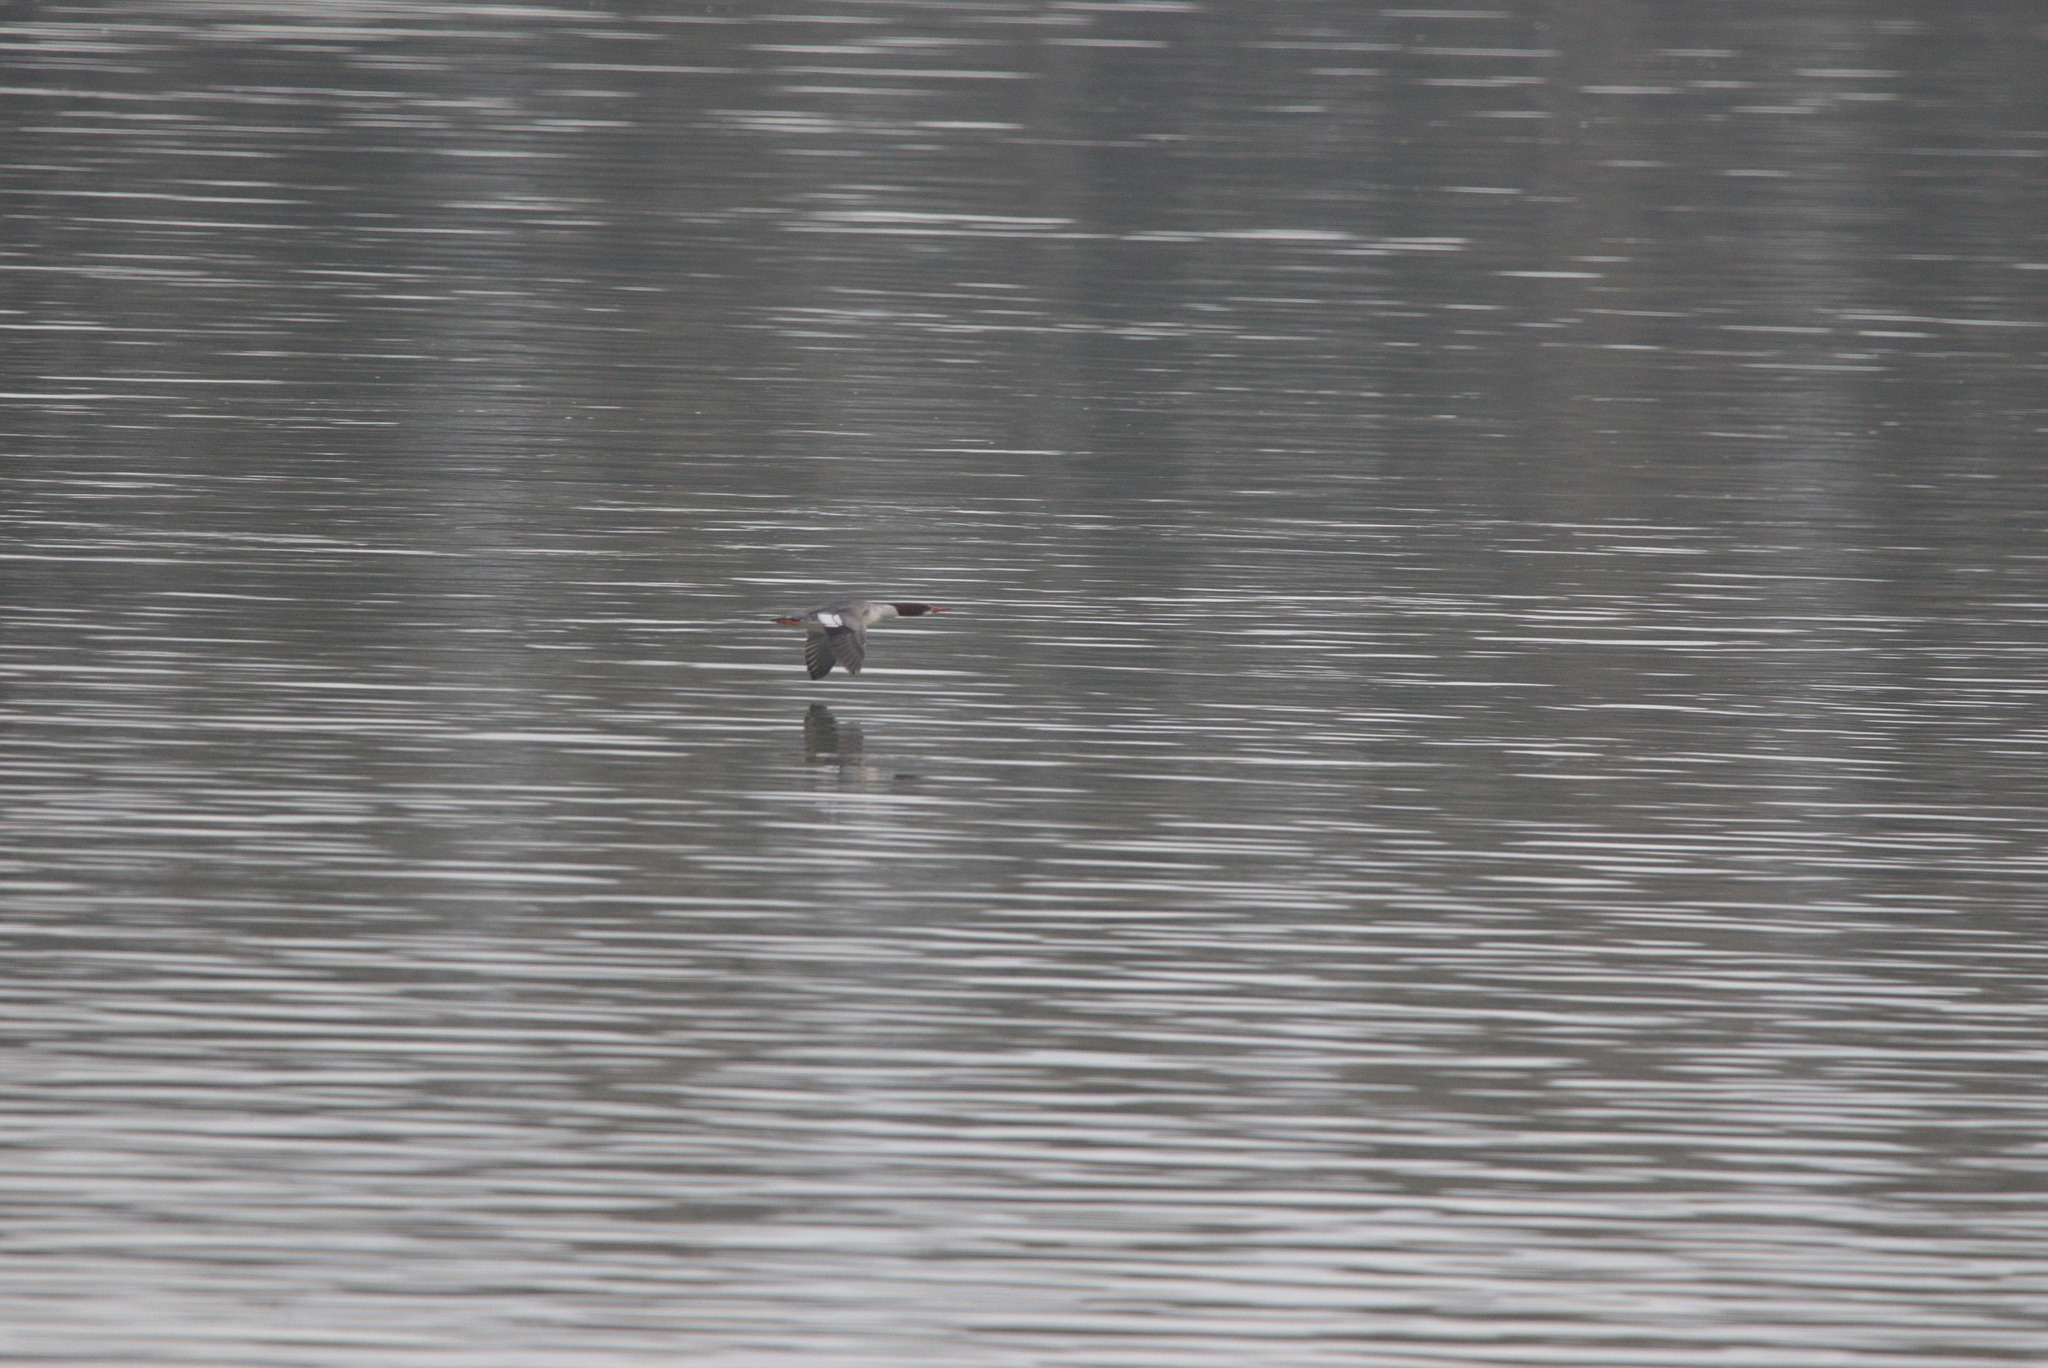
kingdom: Animalia
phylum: Chordata
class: Aves
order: Anseriformes
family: Anatidae
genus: Mergus
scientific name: Mergus merganser
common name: Common merganser
